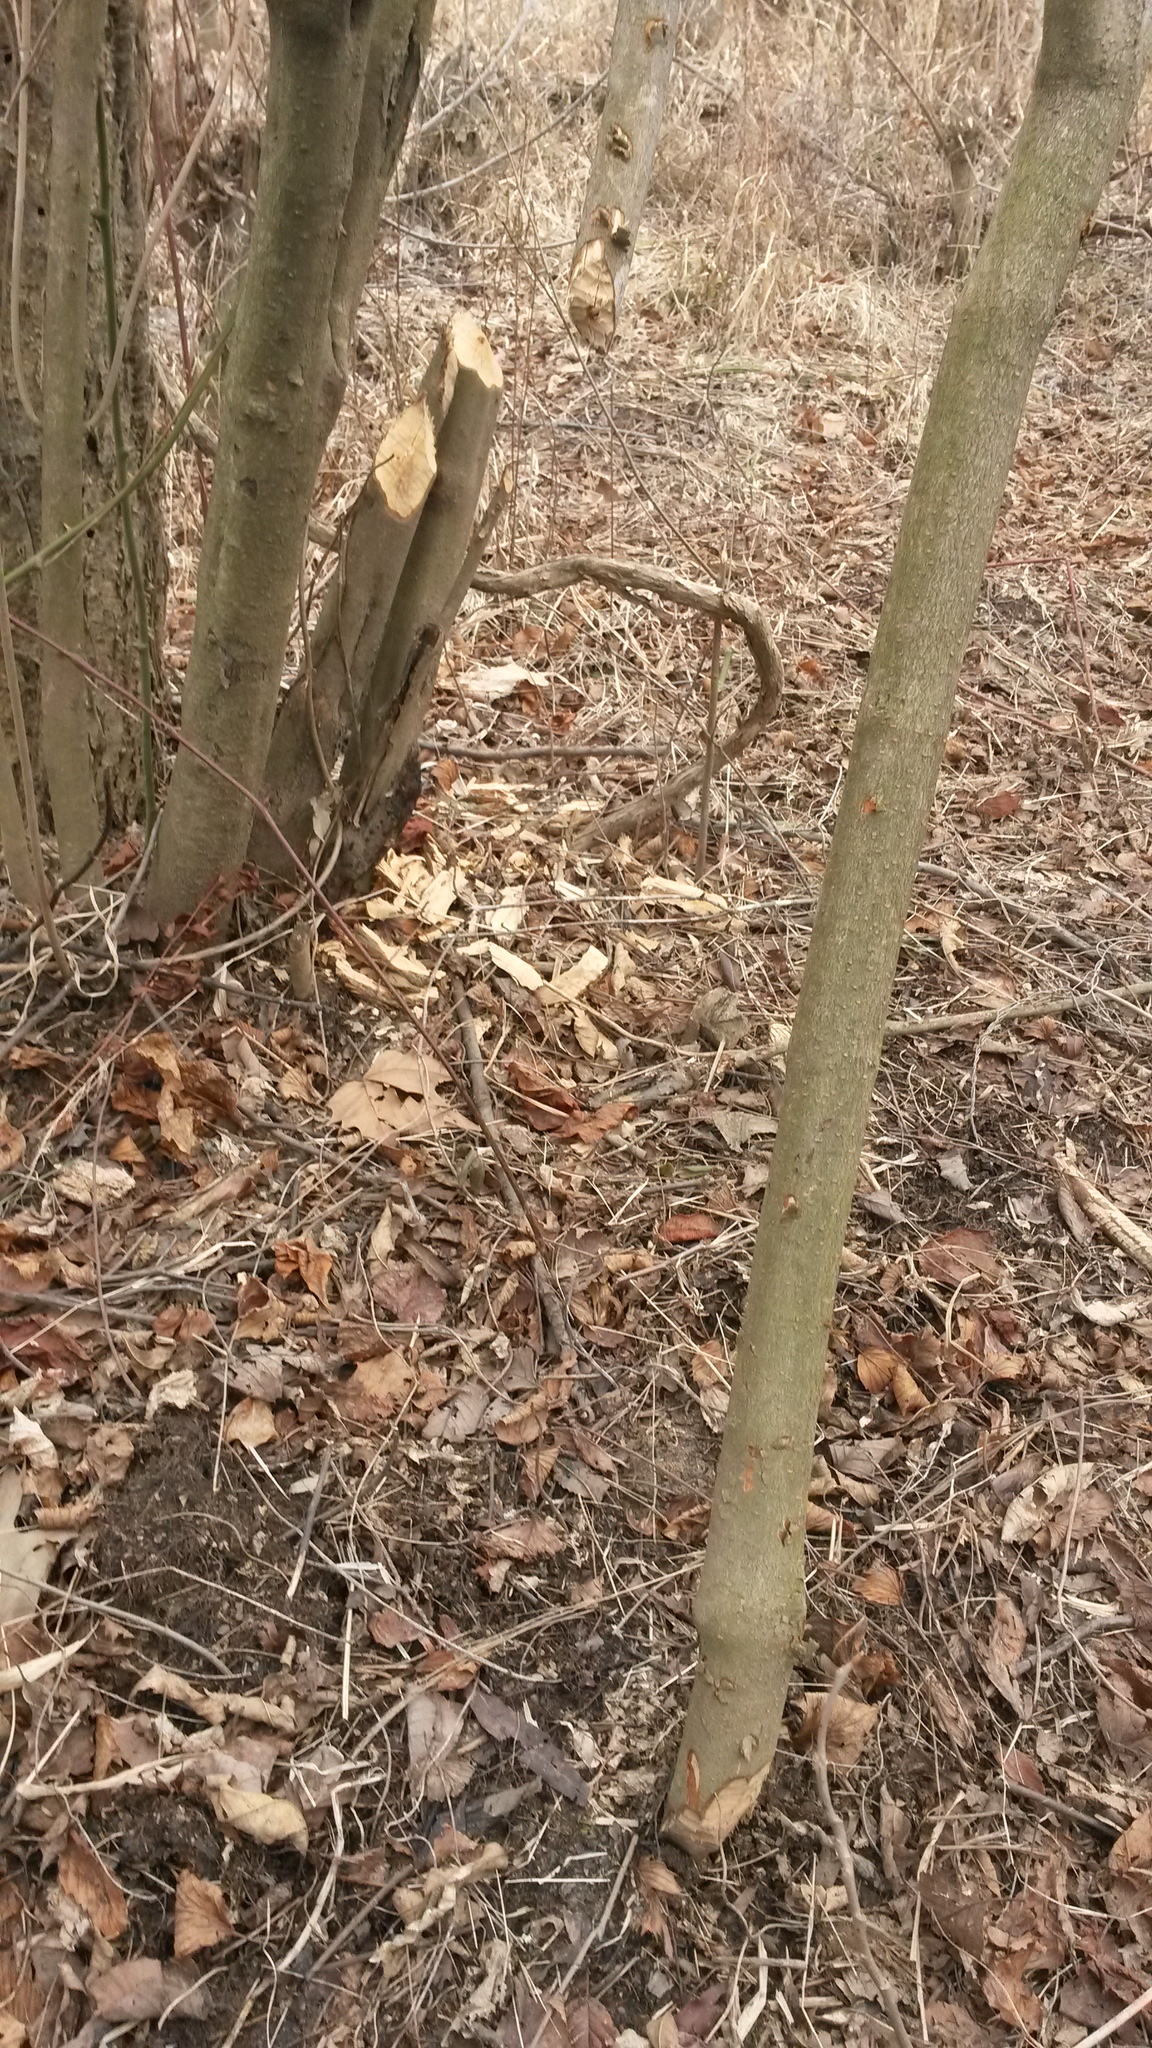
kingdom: Animalia
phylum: Chordata
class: Mammalia
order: Rodentia
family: Castoridae
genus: Castor
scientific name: Castor canadensis
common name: American beaver
